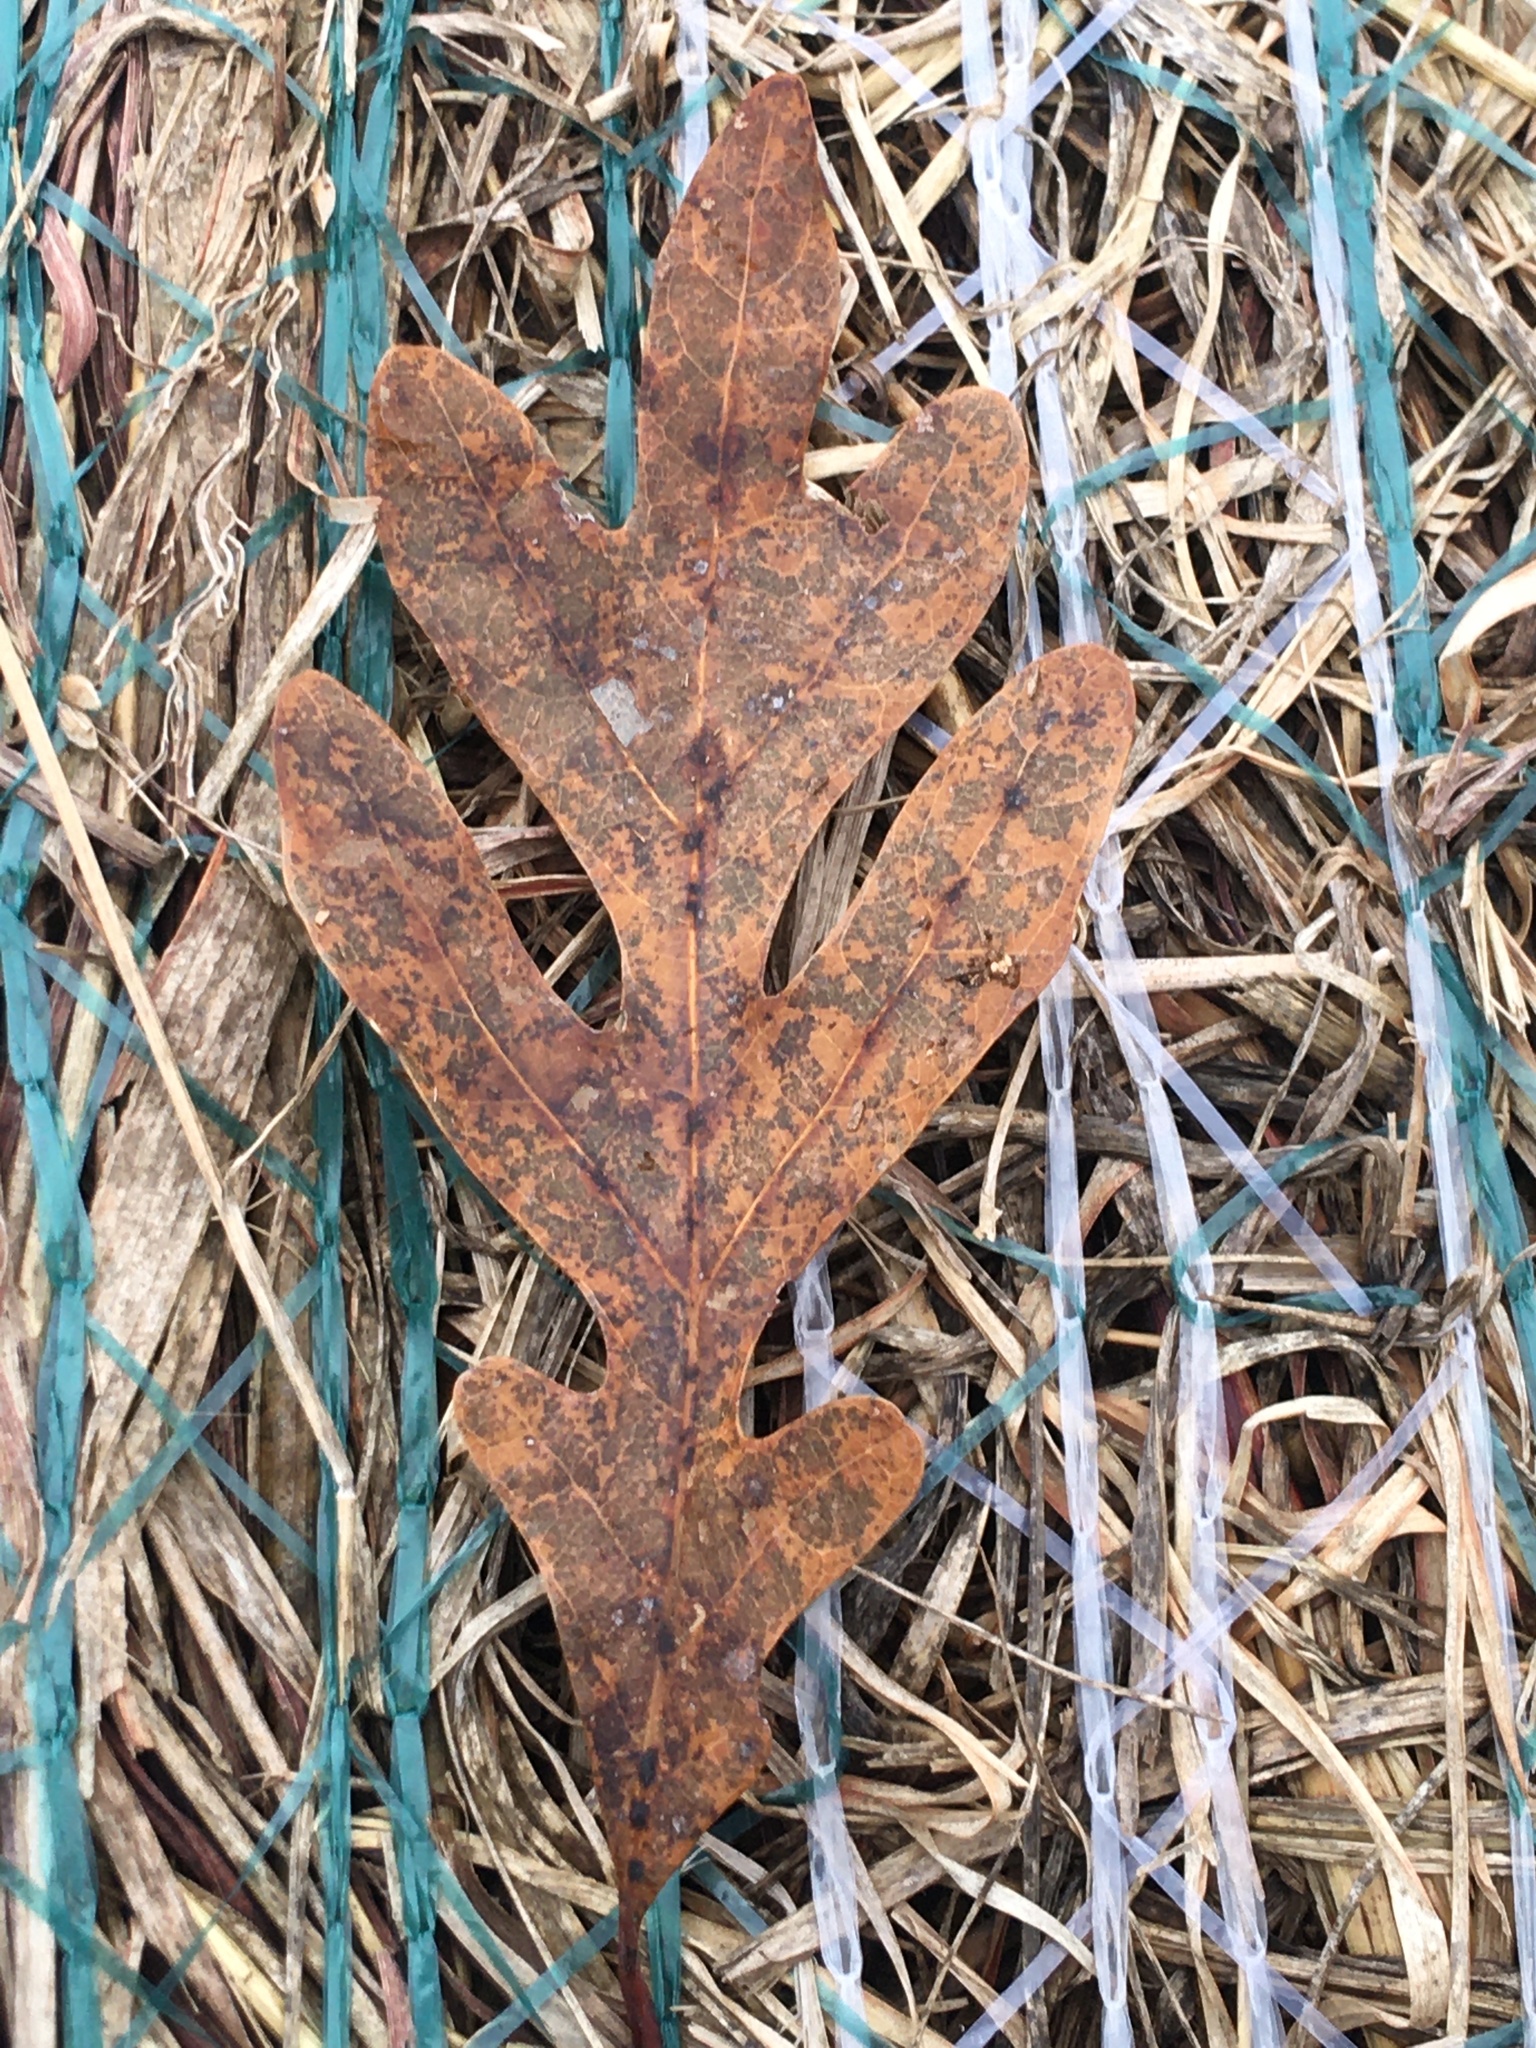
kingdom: Plantae
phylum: Tracheophyta
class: Magnoliopsida
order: Fagales
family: Fagaceae
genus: Quercus
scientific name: Quercus alba
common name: White oak
